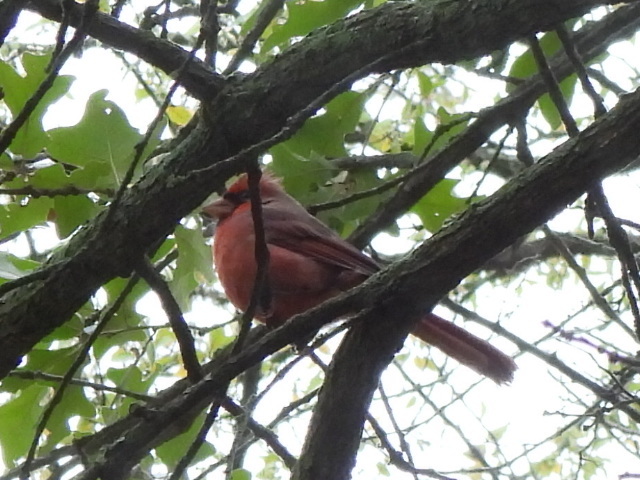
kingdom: Animalia
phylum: Chordata
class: Aves
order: Passeriformes
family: Cardinalidae
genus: Cardinalis
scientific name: Cardinalis cardinalis
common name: Northern cardinal
